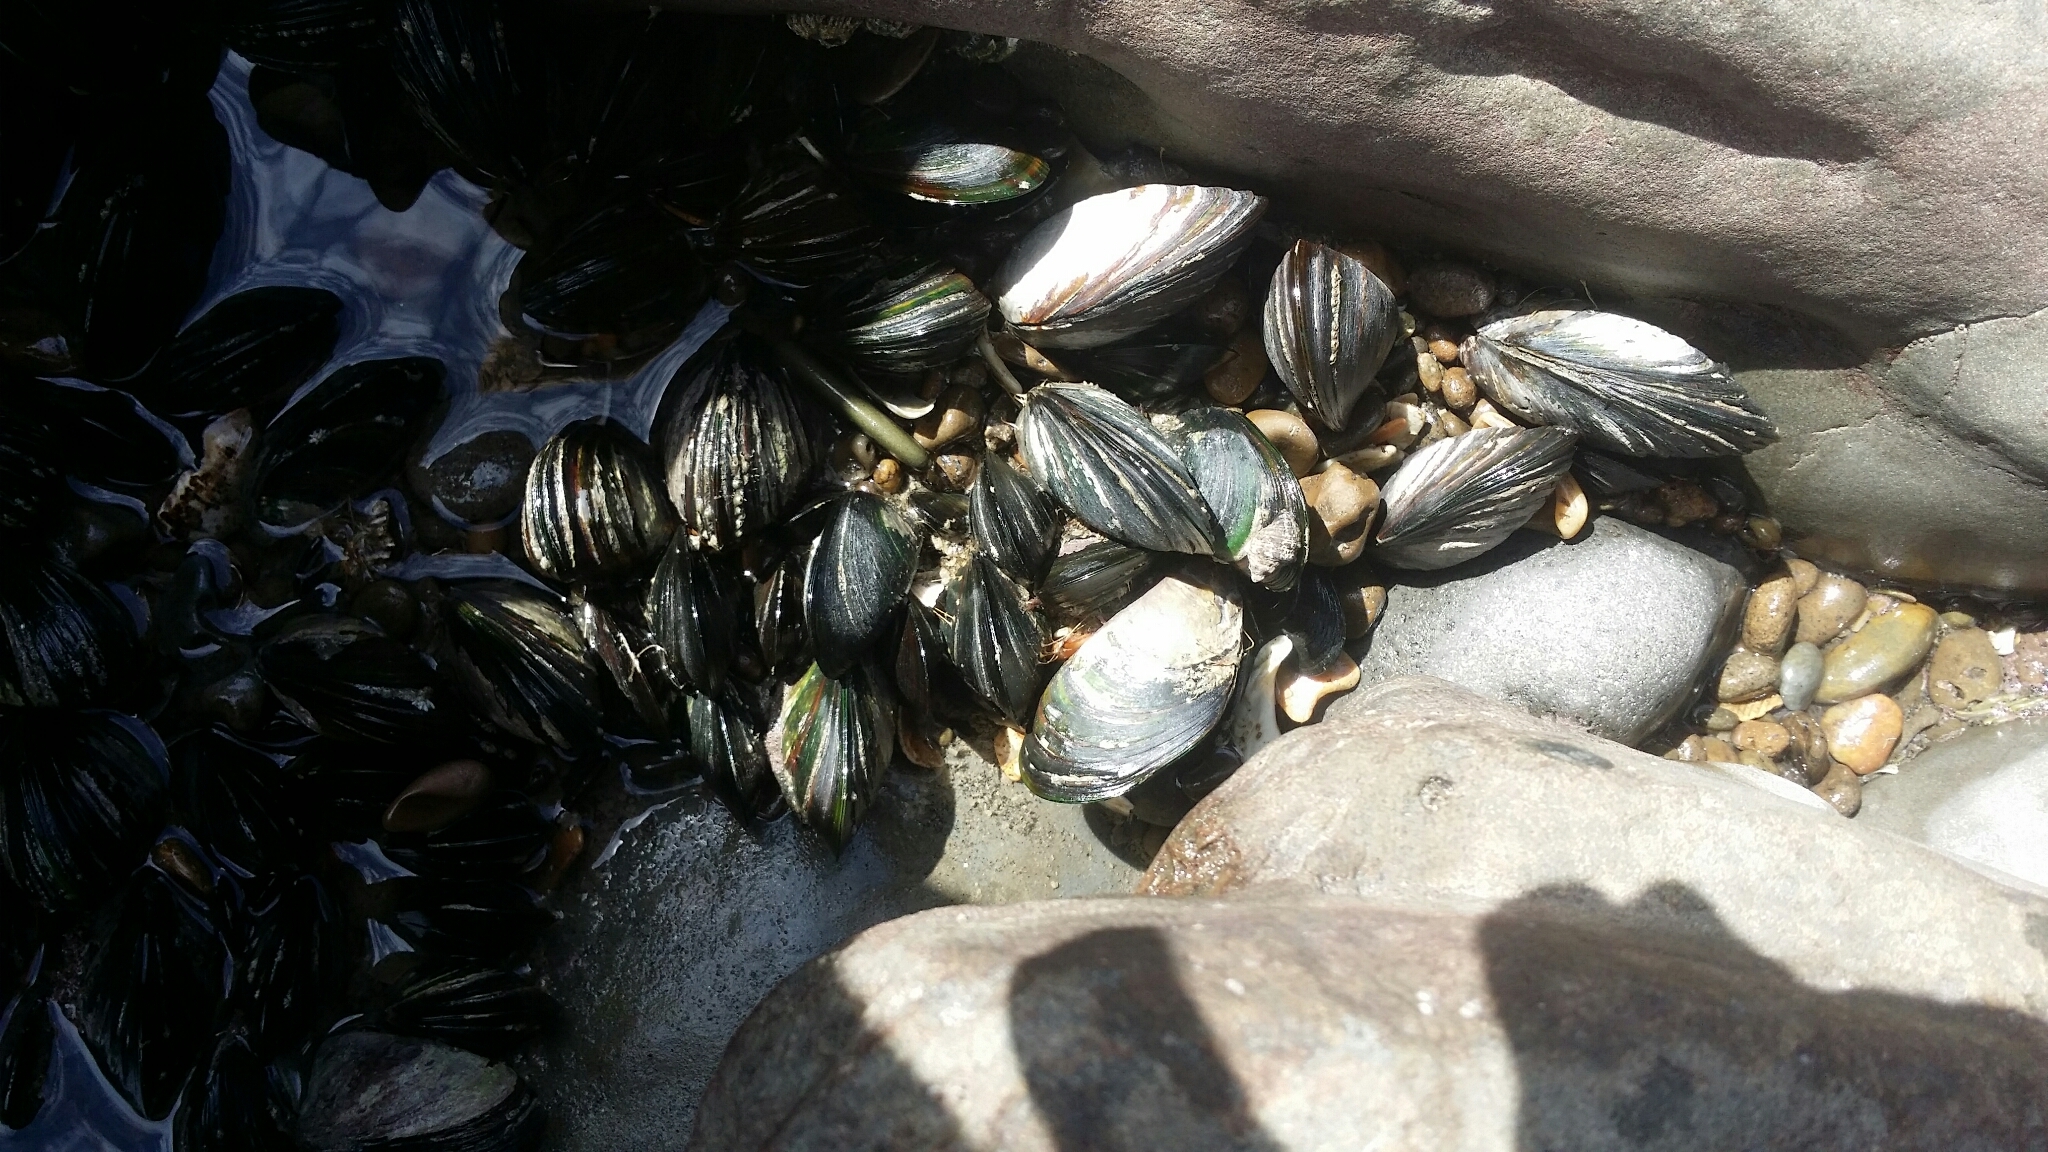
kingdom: Animalia
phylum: Mollusca
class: Bivalvia
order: Mytilida
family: Mytilidae
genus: Perna
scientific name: Perna canaliculus
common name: New zealand greenshelltm
